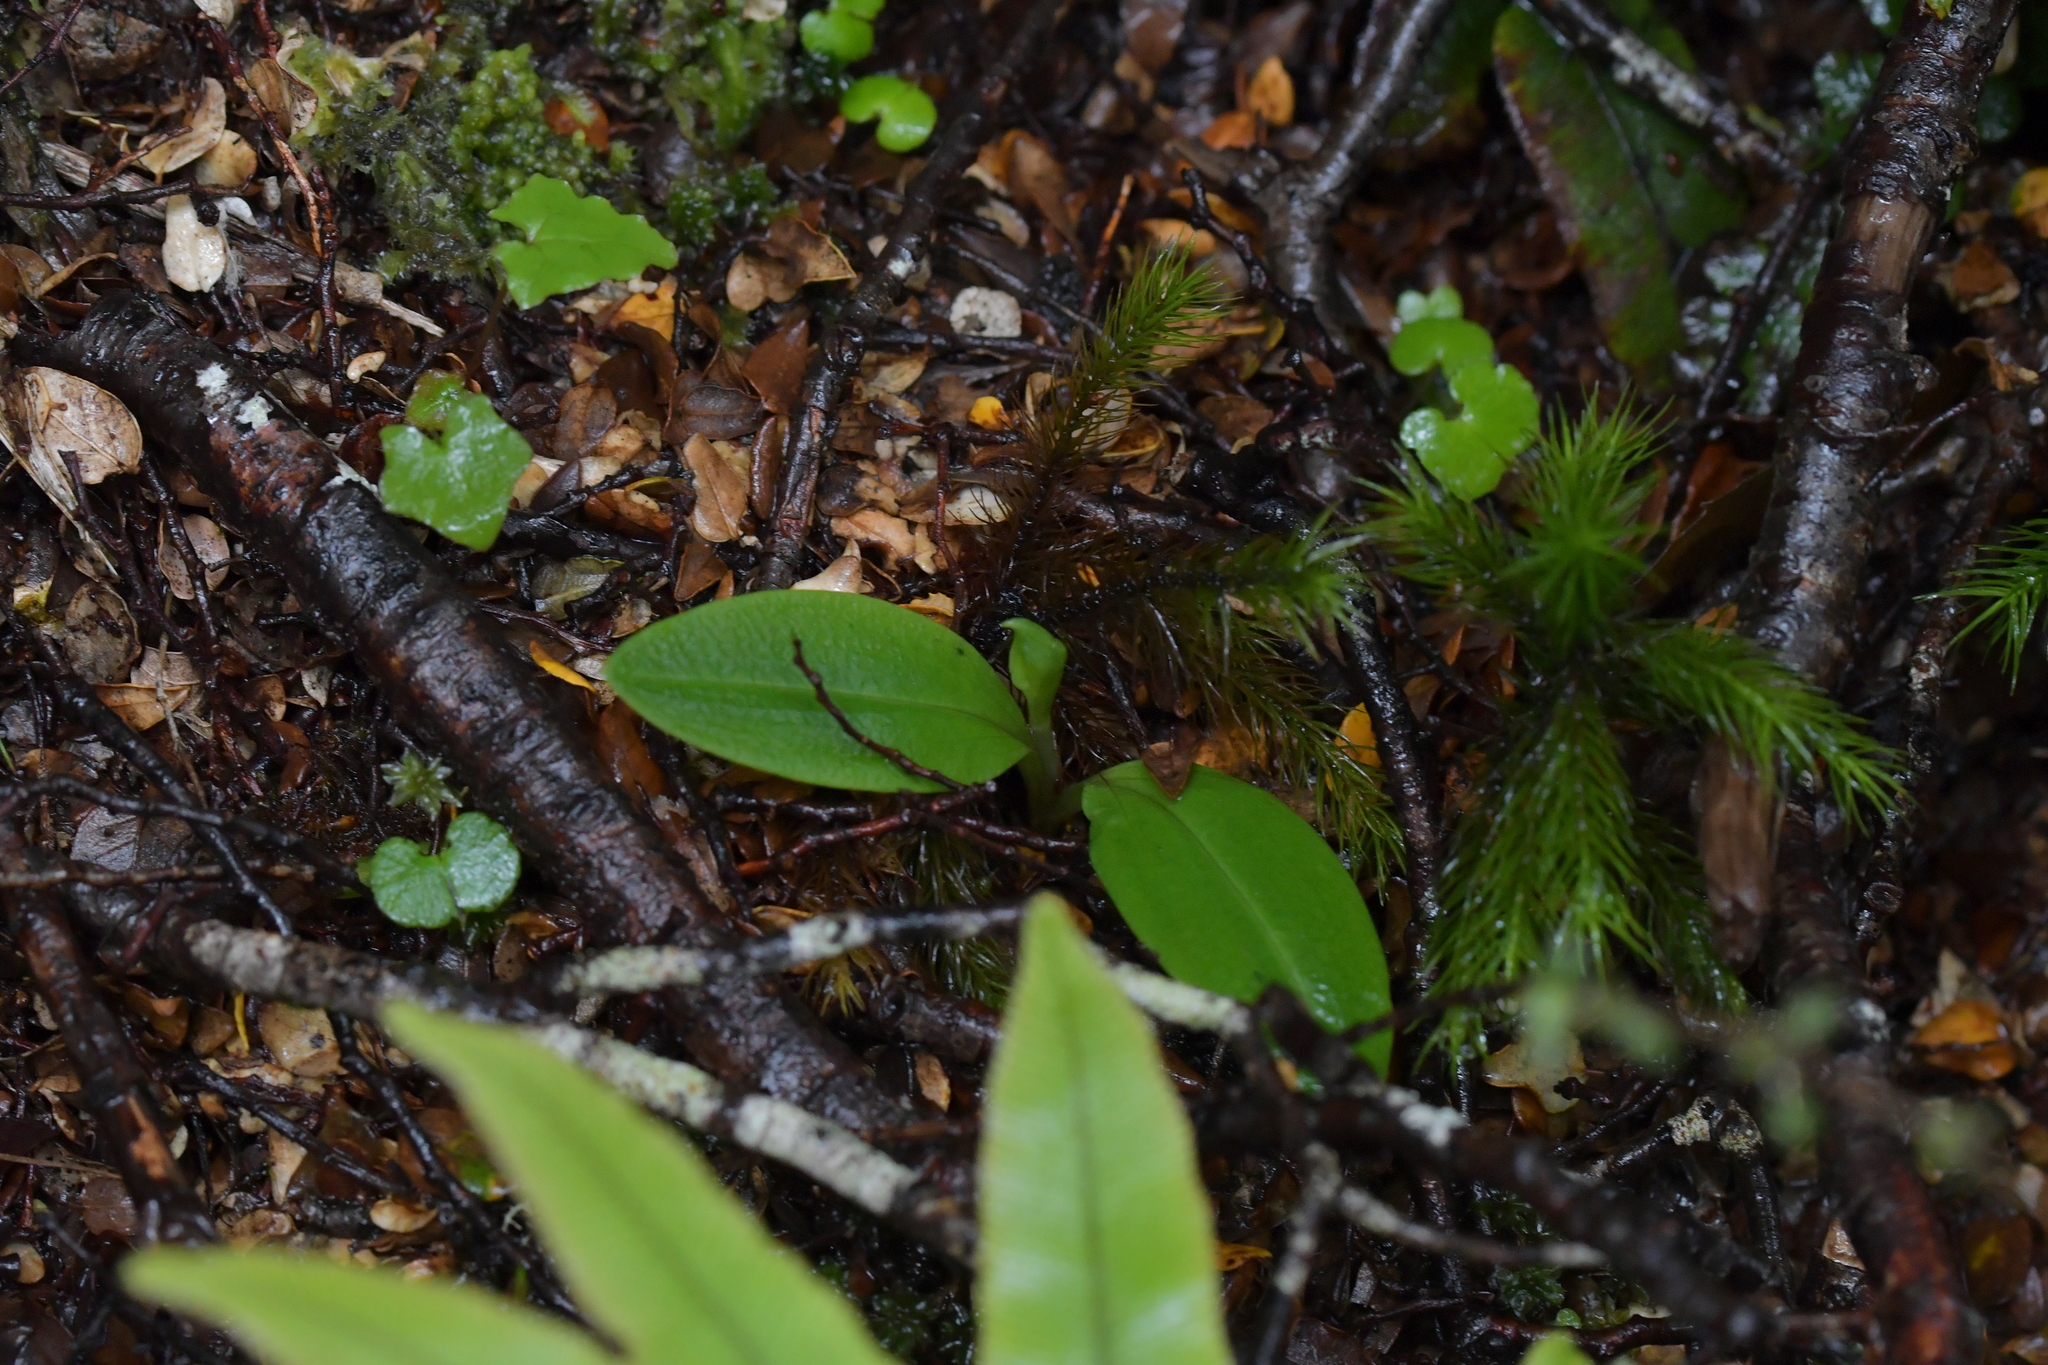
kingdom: Plantae
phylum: Tracheophyta
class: Liliopsida
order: Asparagales
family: Orchidaceae
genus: Chiloglottis
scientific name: Chiloglottis cornuta
